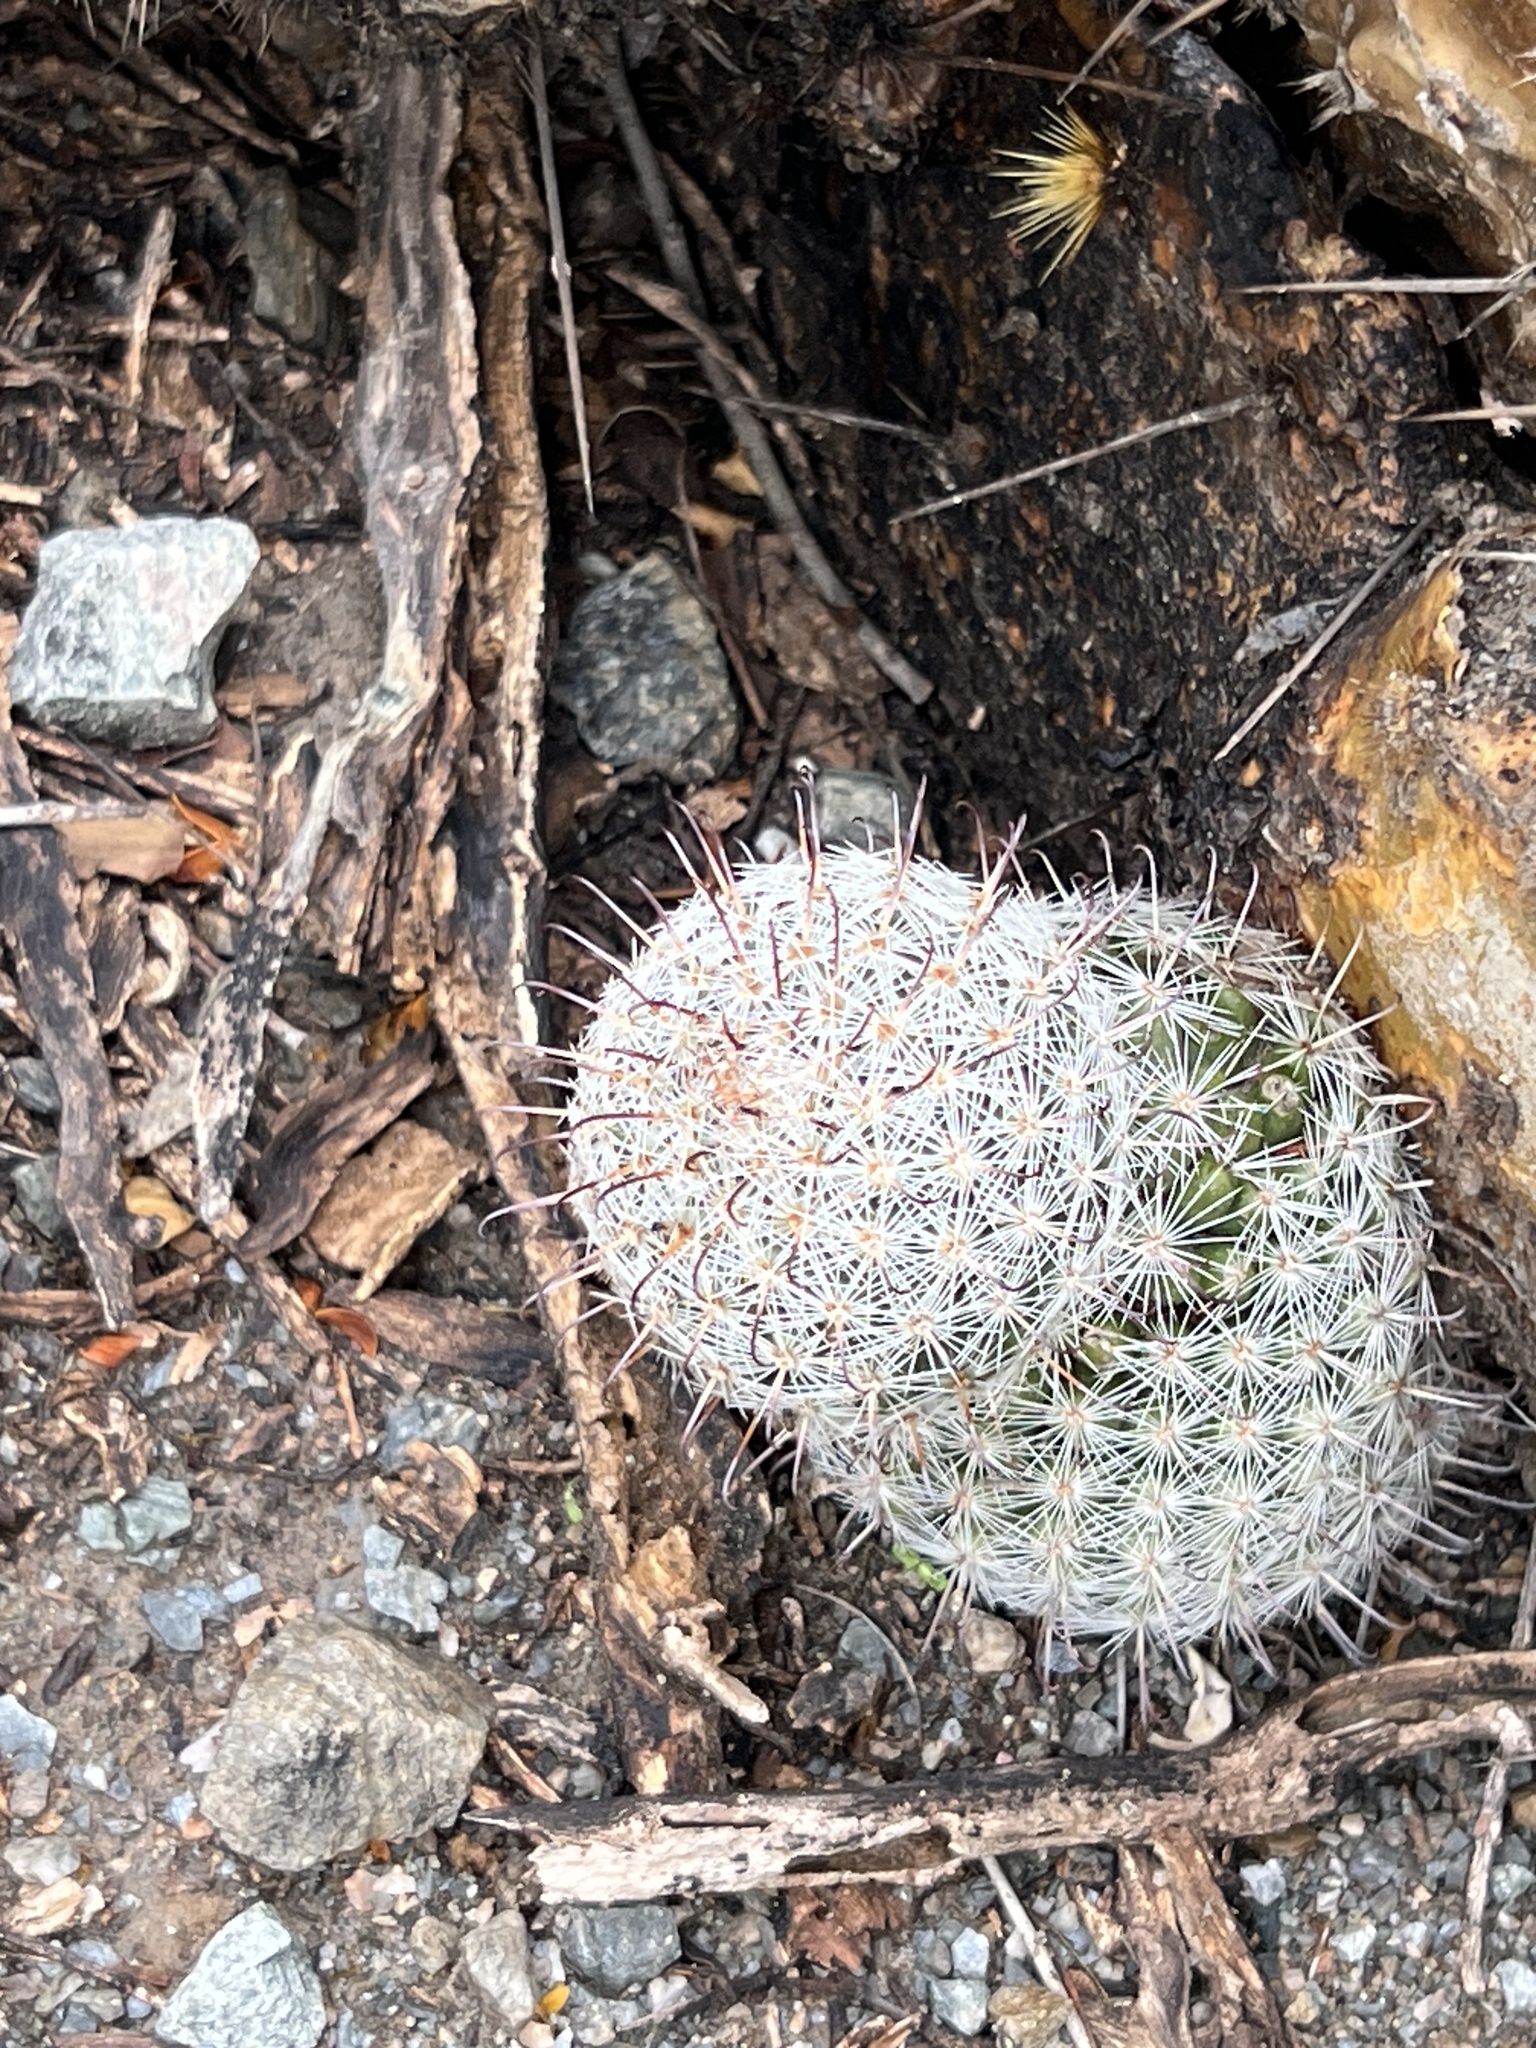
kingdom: Plantae
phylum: Tracheophyta
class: Magnoliopsida
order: Caryophyllales
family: Cactaceae
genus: Cochemiea
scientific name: Cochemiea grahamii
